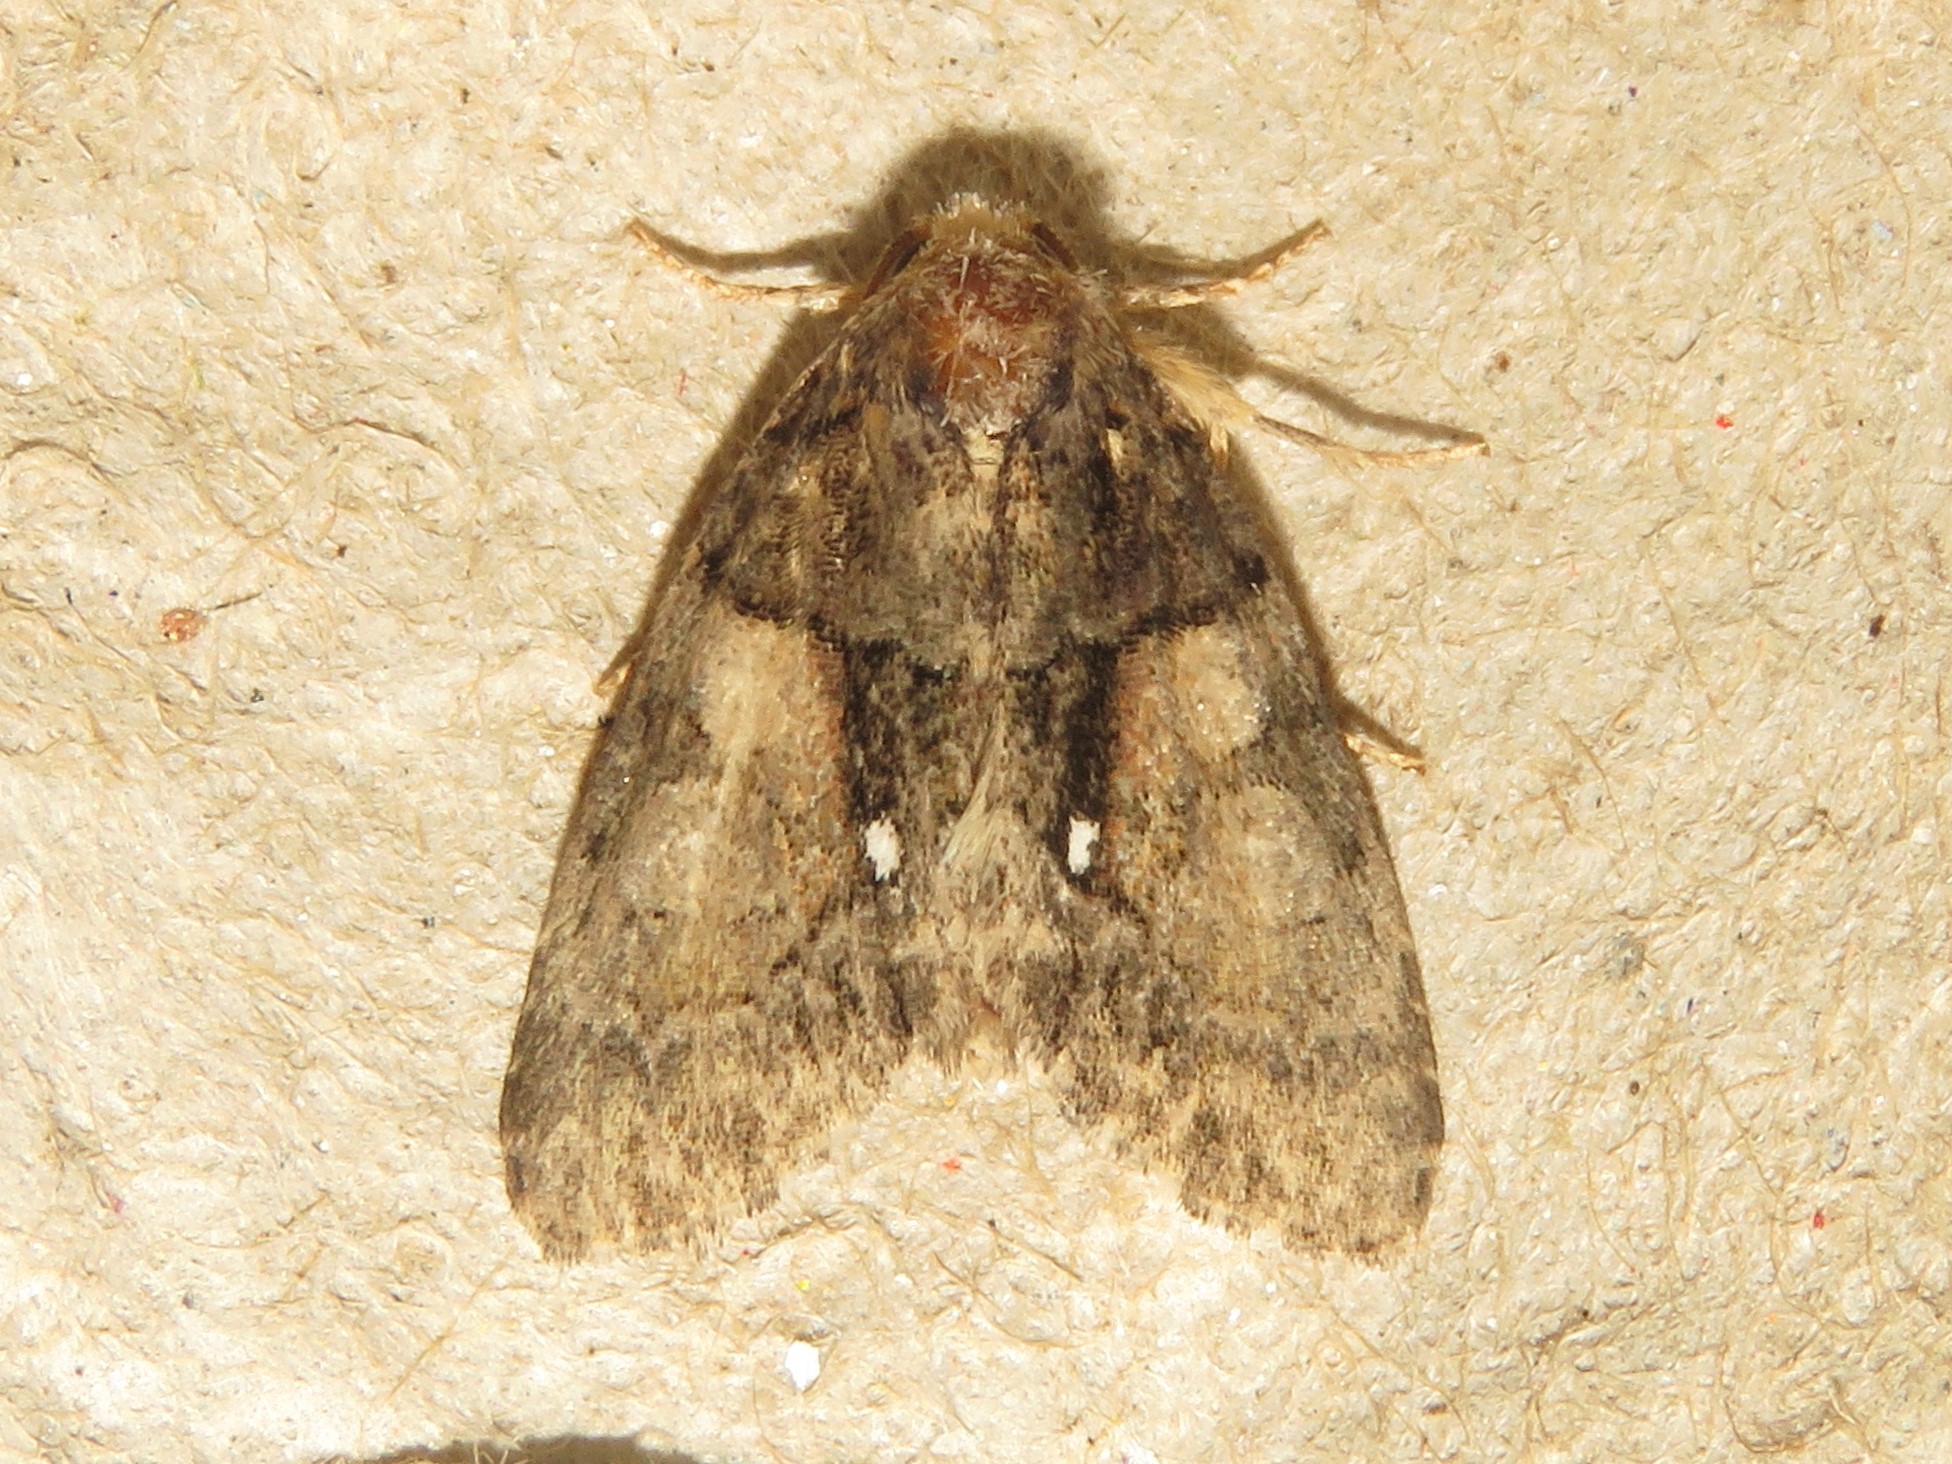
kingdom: Animalia
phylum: Arthropoda
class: Insecta
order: Lepidoptera
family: Noctuidae
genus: Chytonix
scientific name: Chytonix palliatricula
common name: Cloaked marvel
